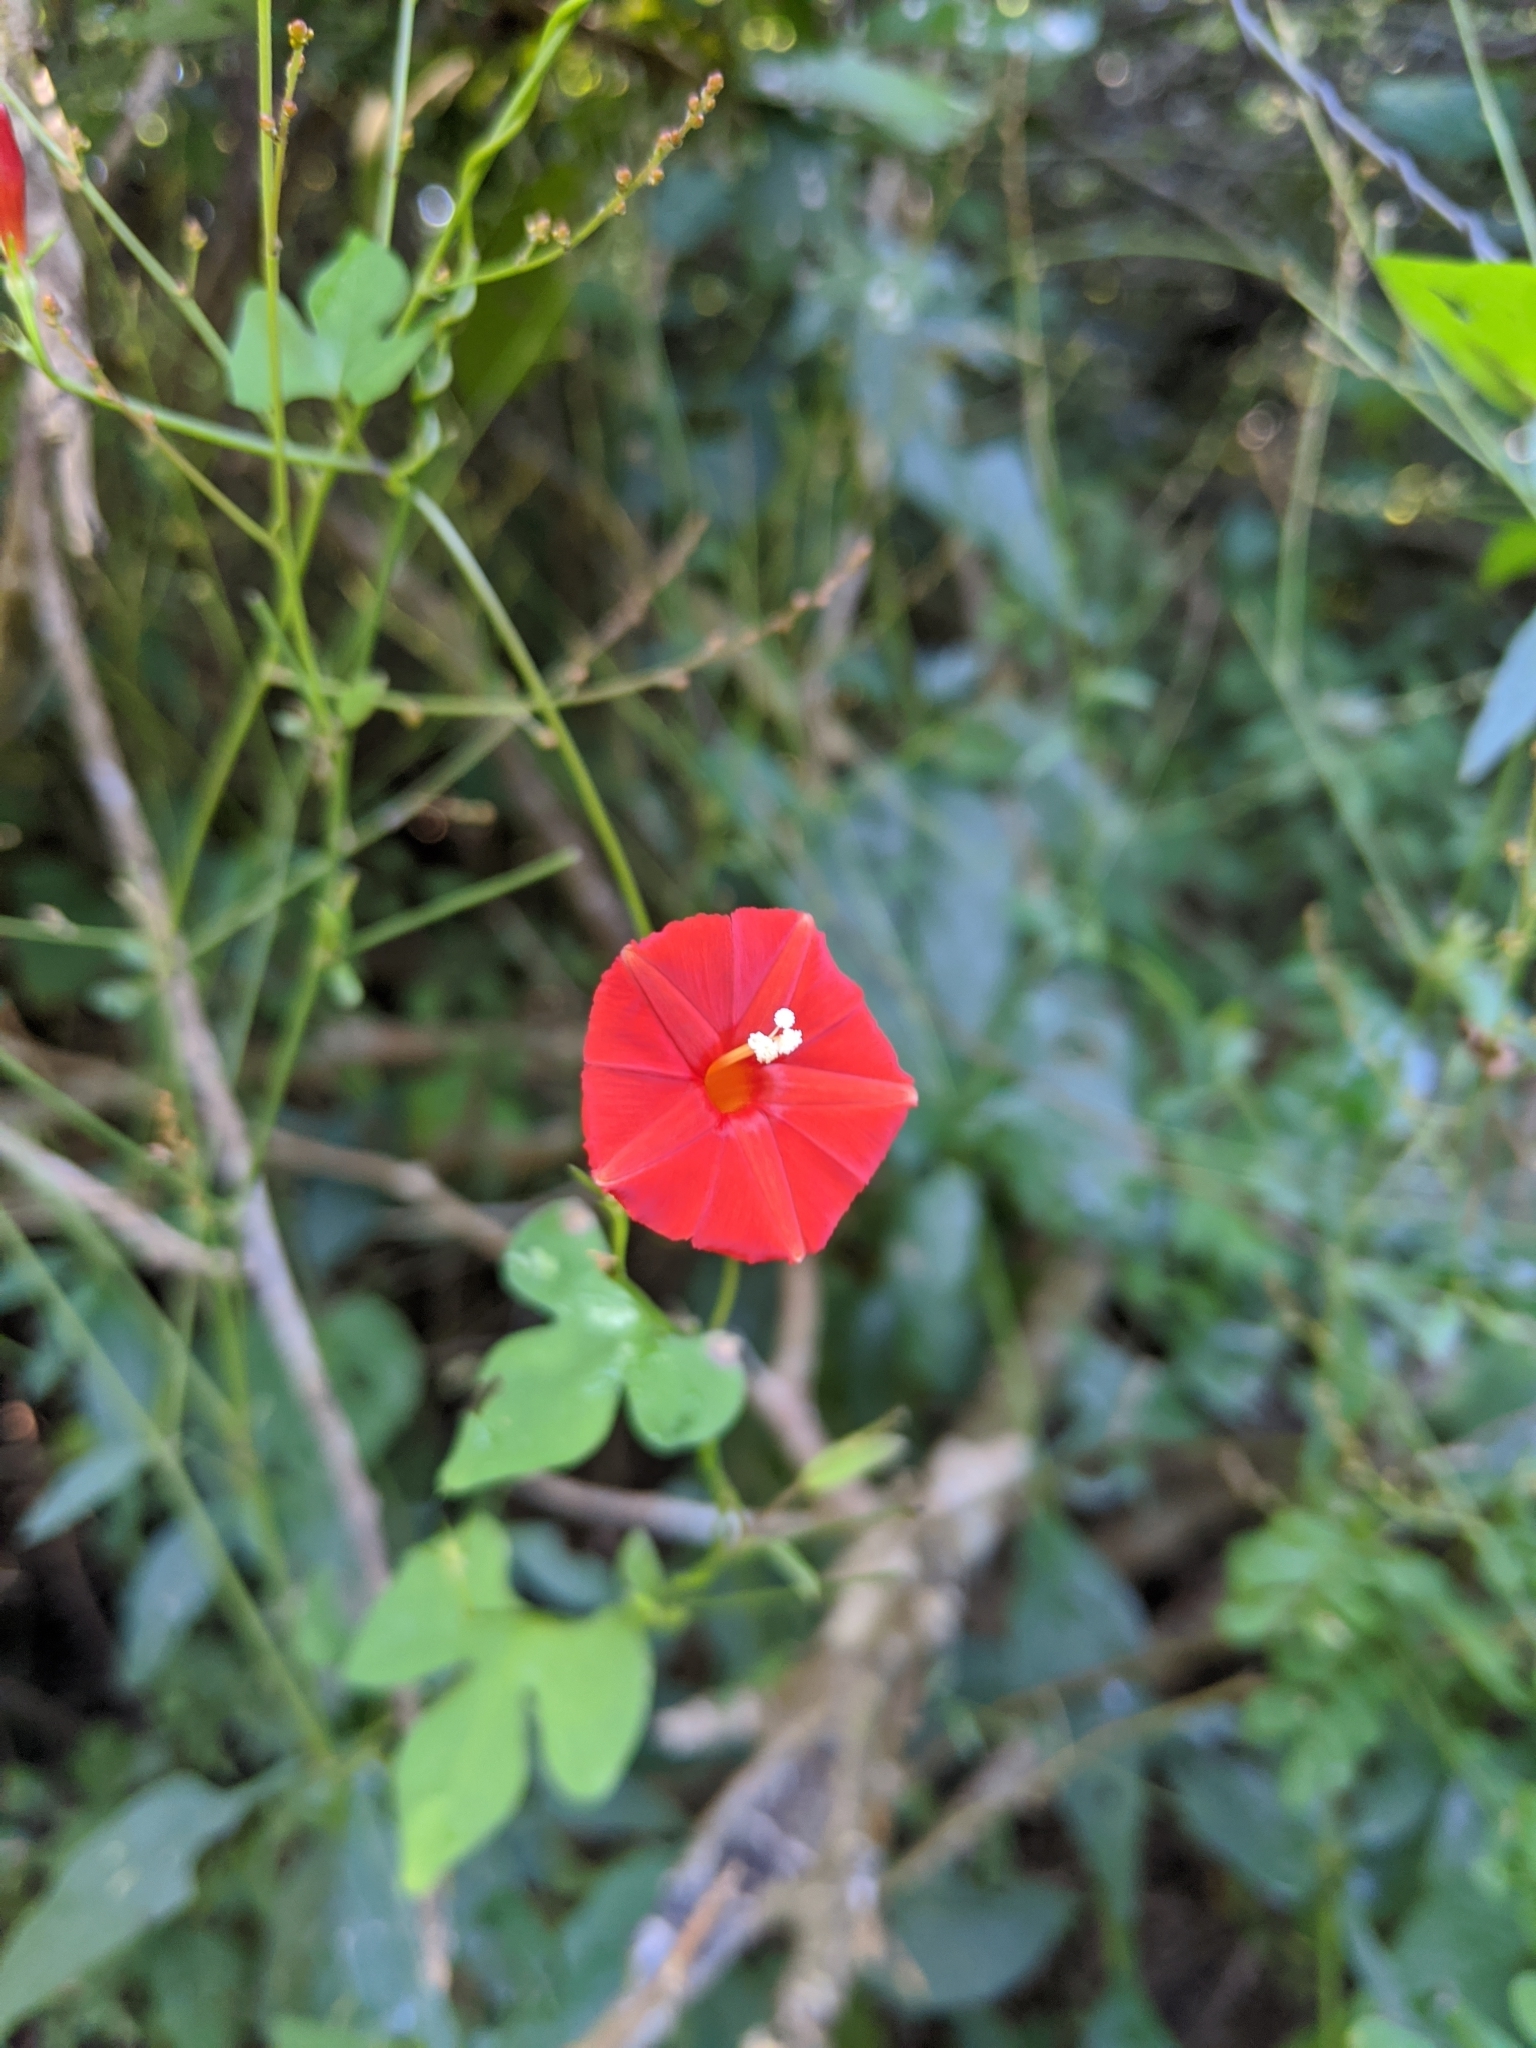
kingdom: Plantae
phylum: Tracheophyta
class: Magnoliopsida
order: Solanales
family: Convolvulaceae
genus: Ipomoea
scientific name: Ipomoea hederifolia
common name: Ivy-leaf morning-glory
